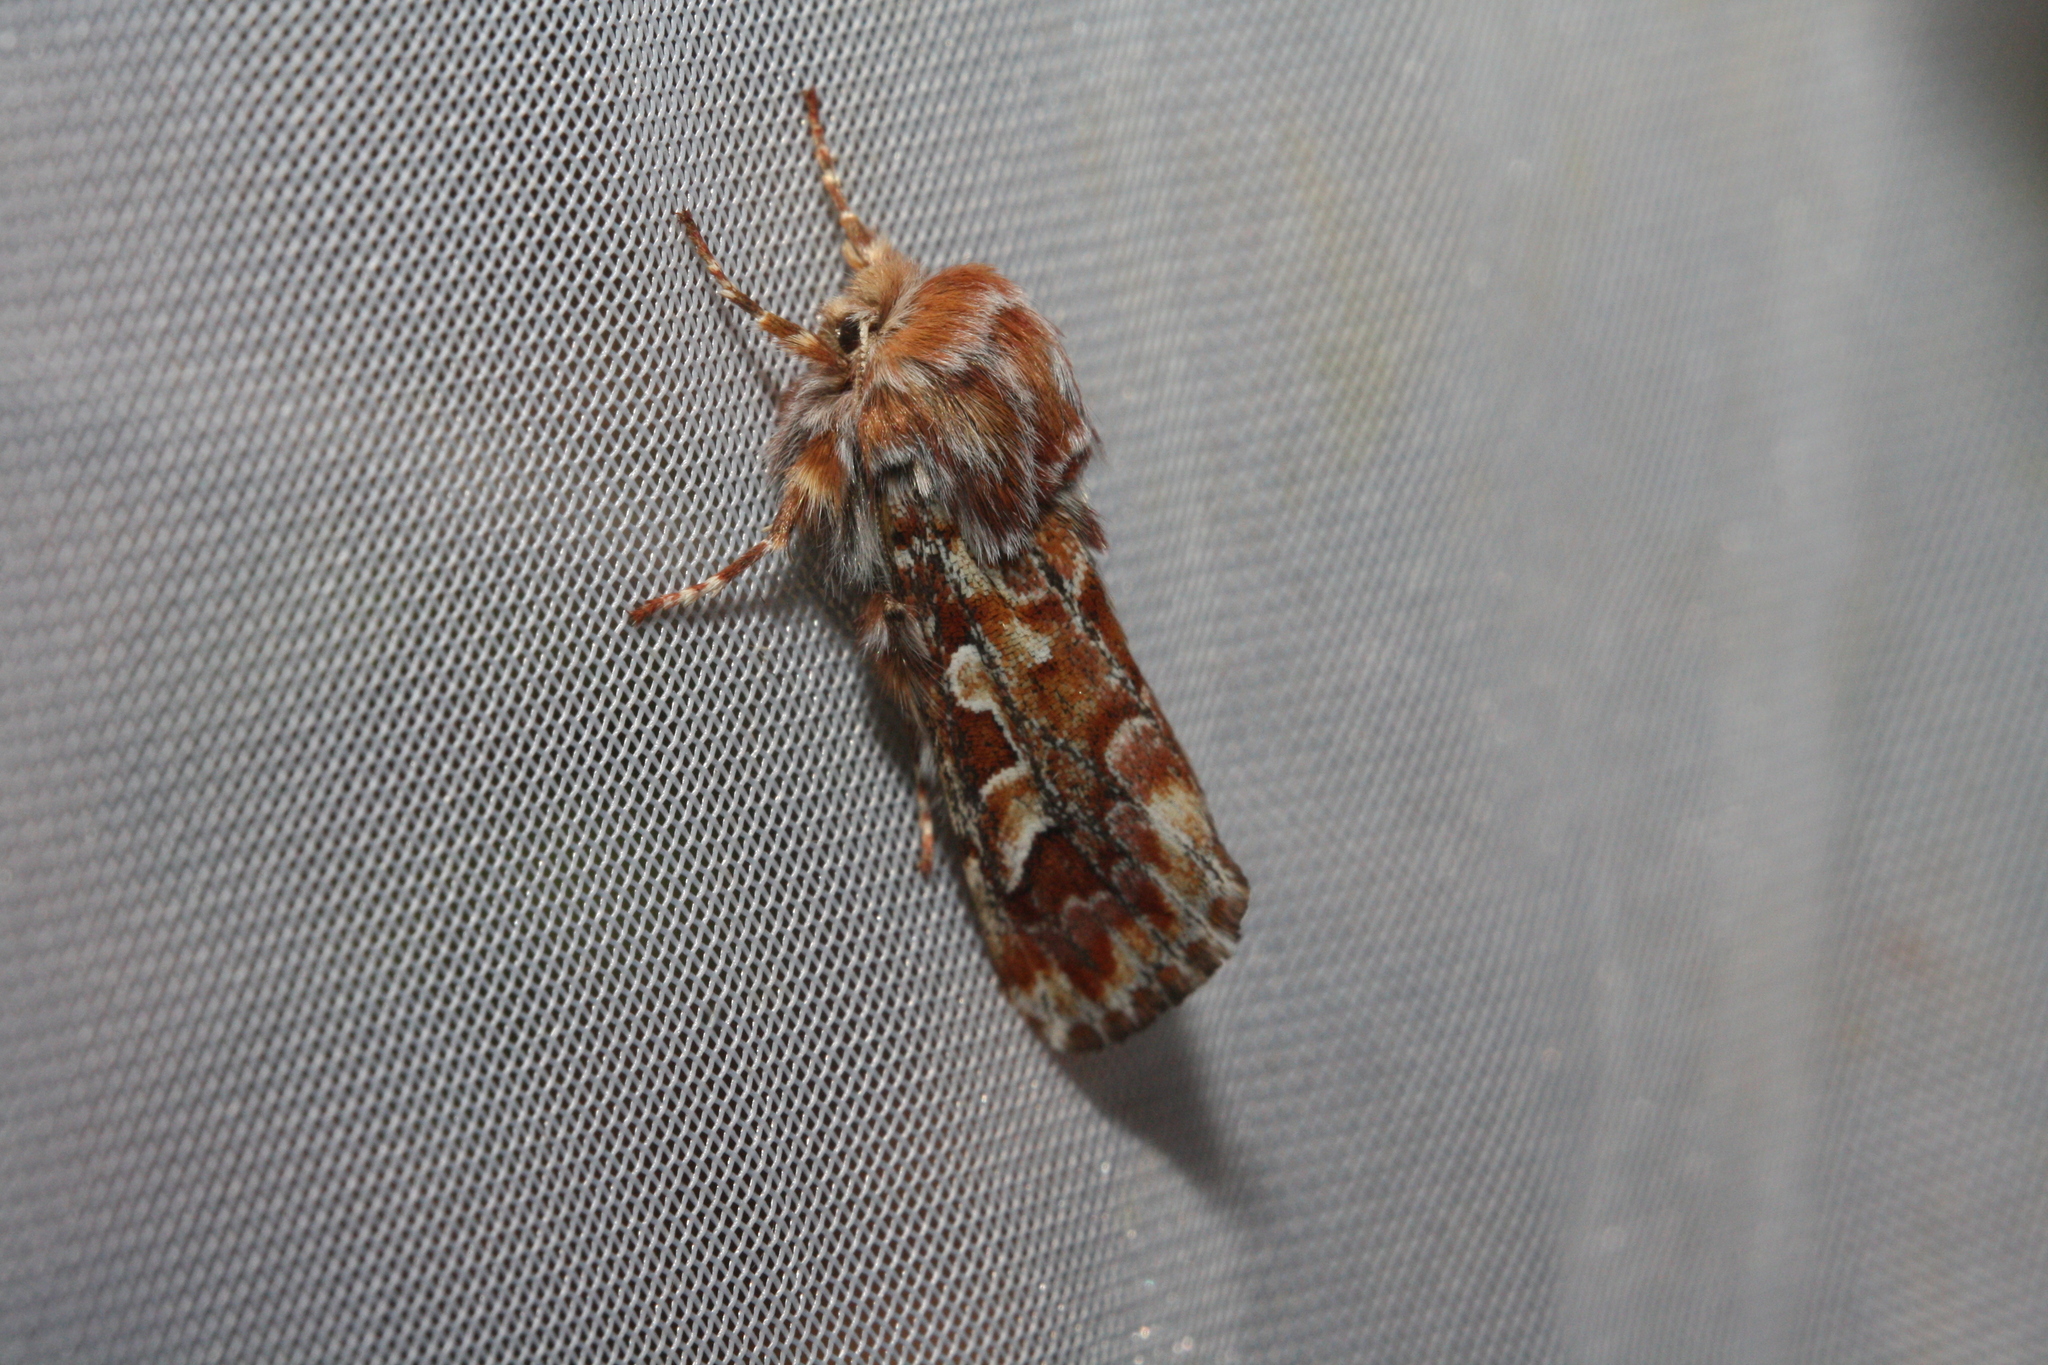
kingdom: Animalia
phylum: Arthropoda
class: Insecta
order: Lepidoptera
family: Noctuidae
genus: Panolis
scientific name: Panolis flammea
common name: Pine beauty
